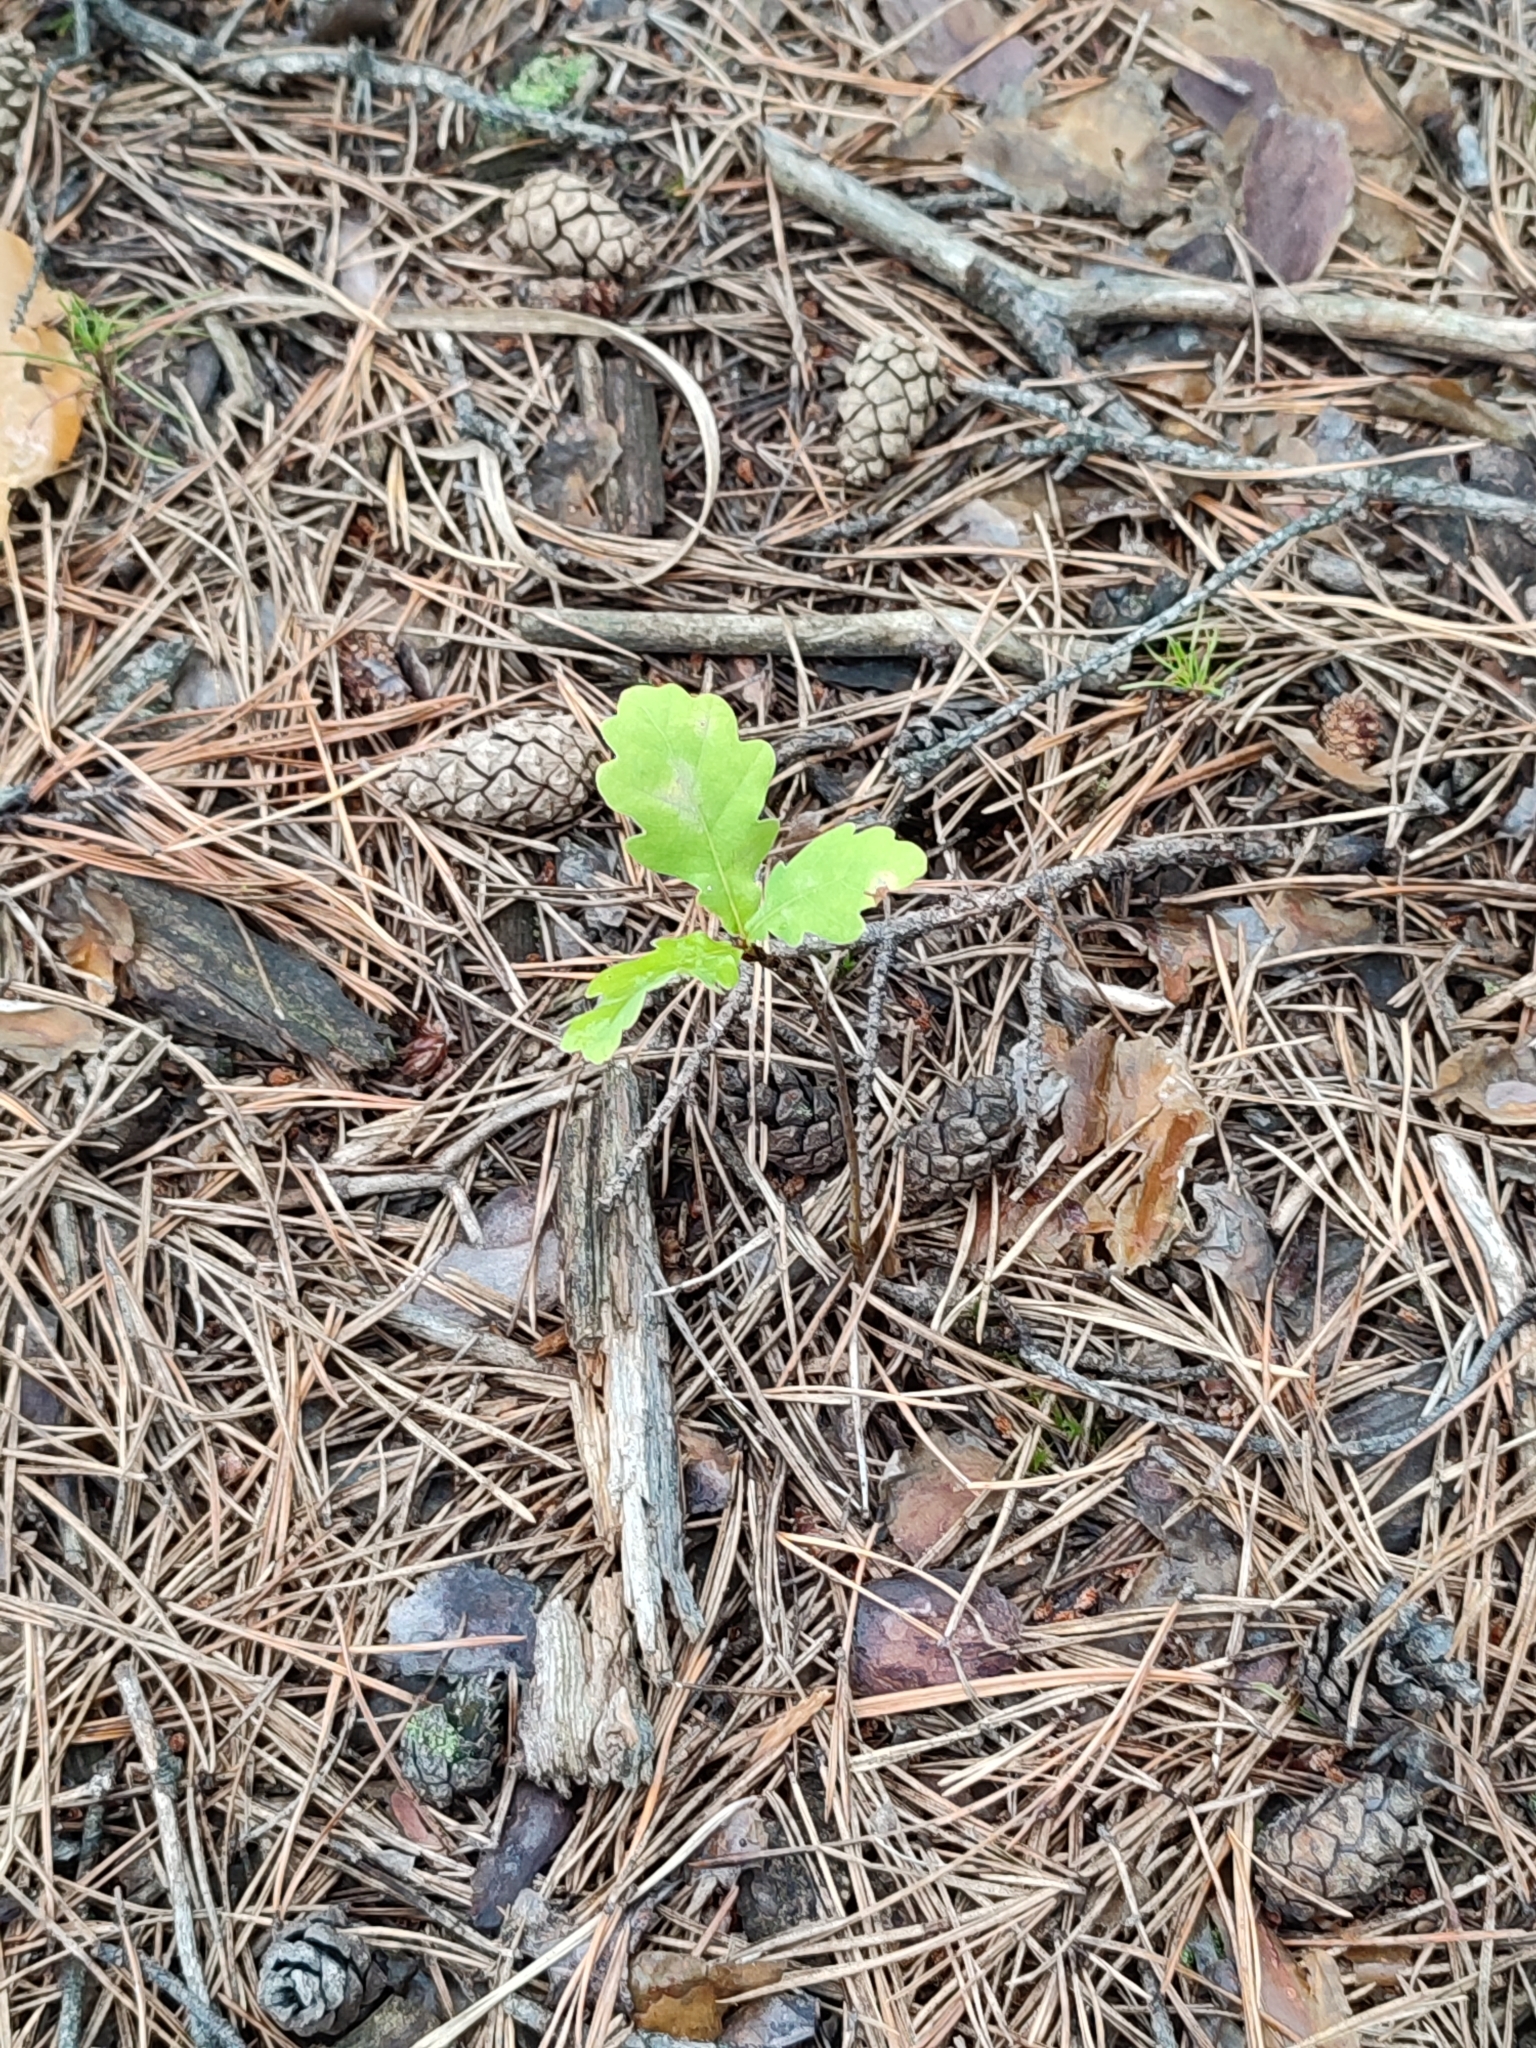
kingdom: Plantae
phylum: Tracheophyta
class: Magnoliopsida
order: Fagales
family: Fagaceae
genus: Quercus
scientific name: Quercus robur
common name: Pedunculate oak
